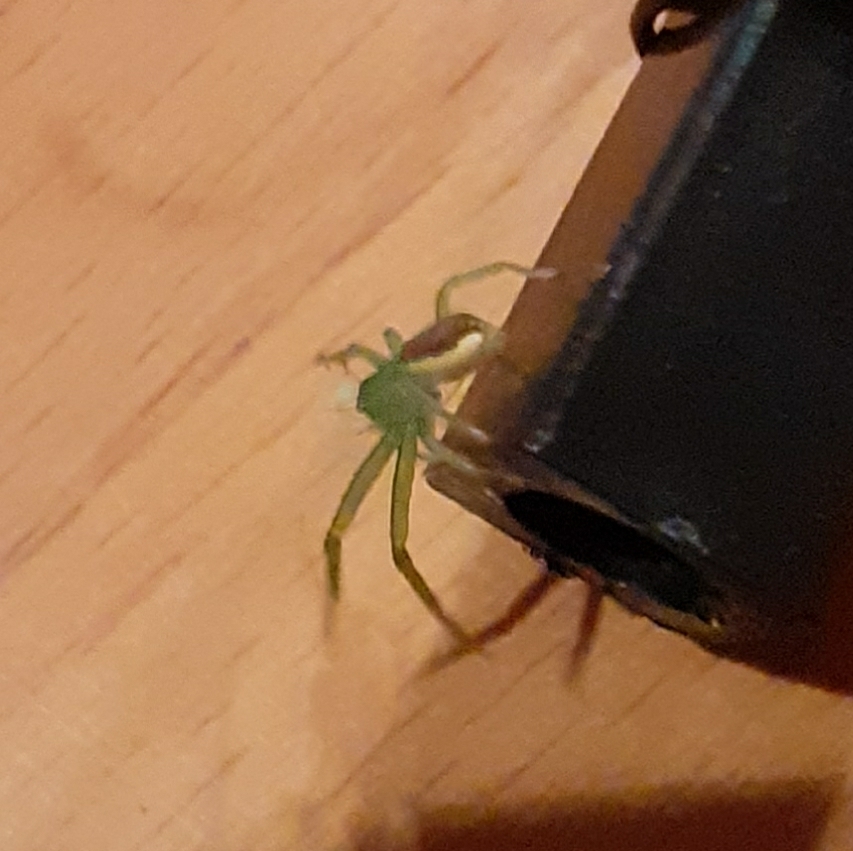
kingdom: Animalia
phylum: Arthropoda
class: Arachnida
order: Araneae
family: Thomisidae
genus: Diaea
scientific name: Diaea dorsata
